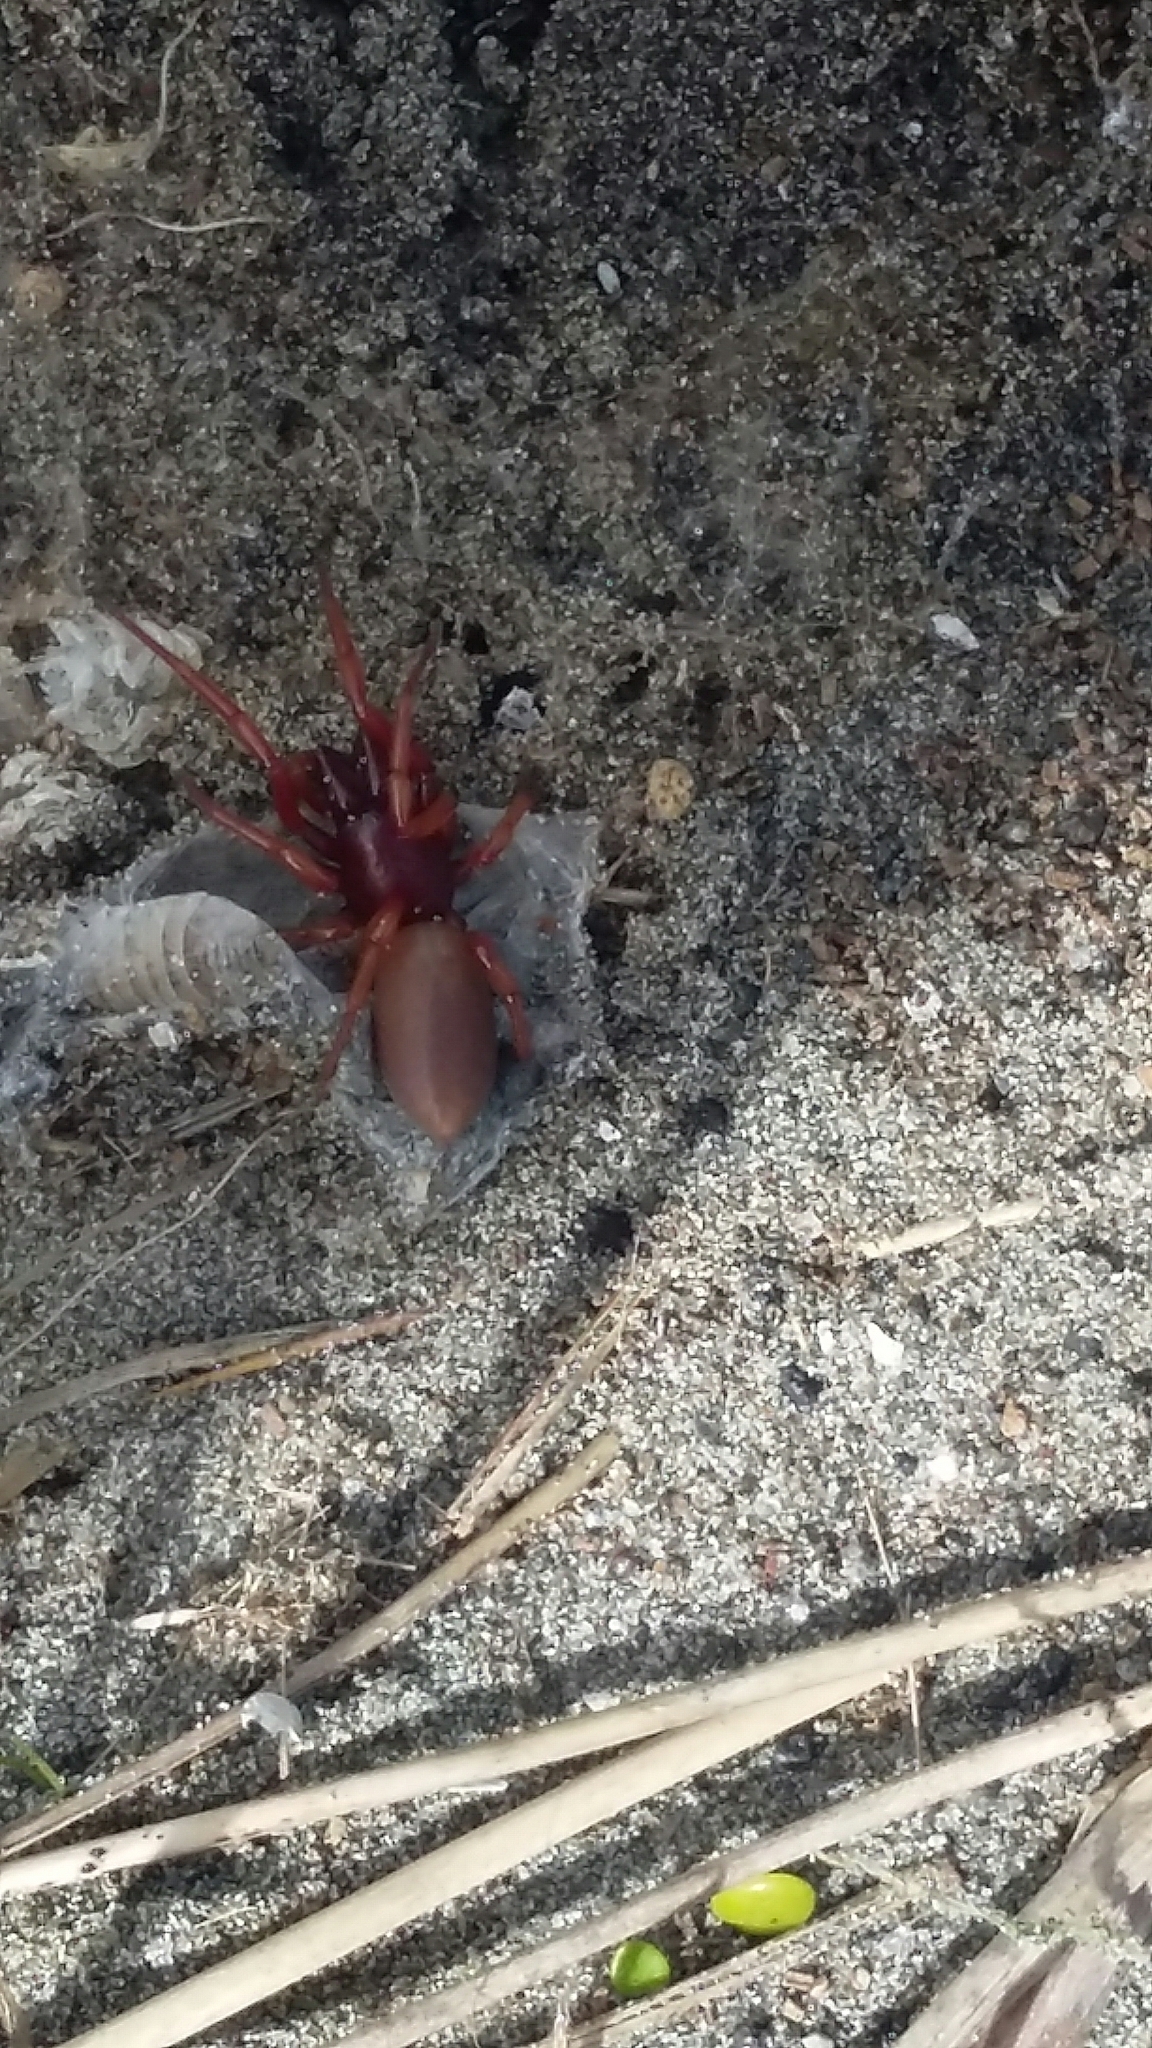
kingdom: Animalia
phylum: Arthropoda
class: Arachnida
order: Araneae
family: Dysderidae
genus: Dysdera
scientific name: Dysdera crocata
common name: Woodlouse spider
